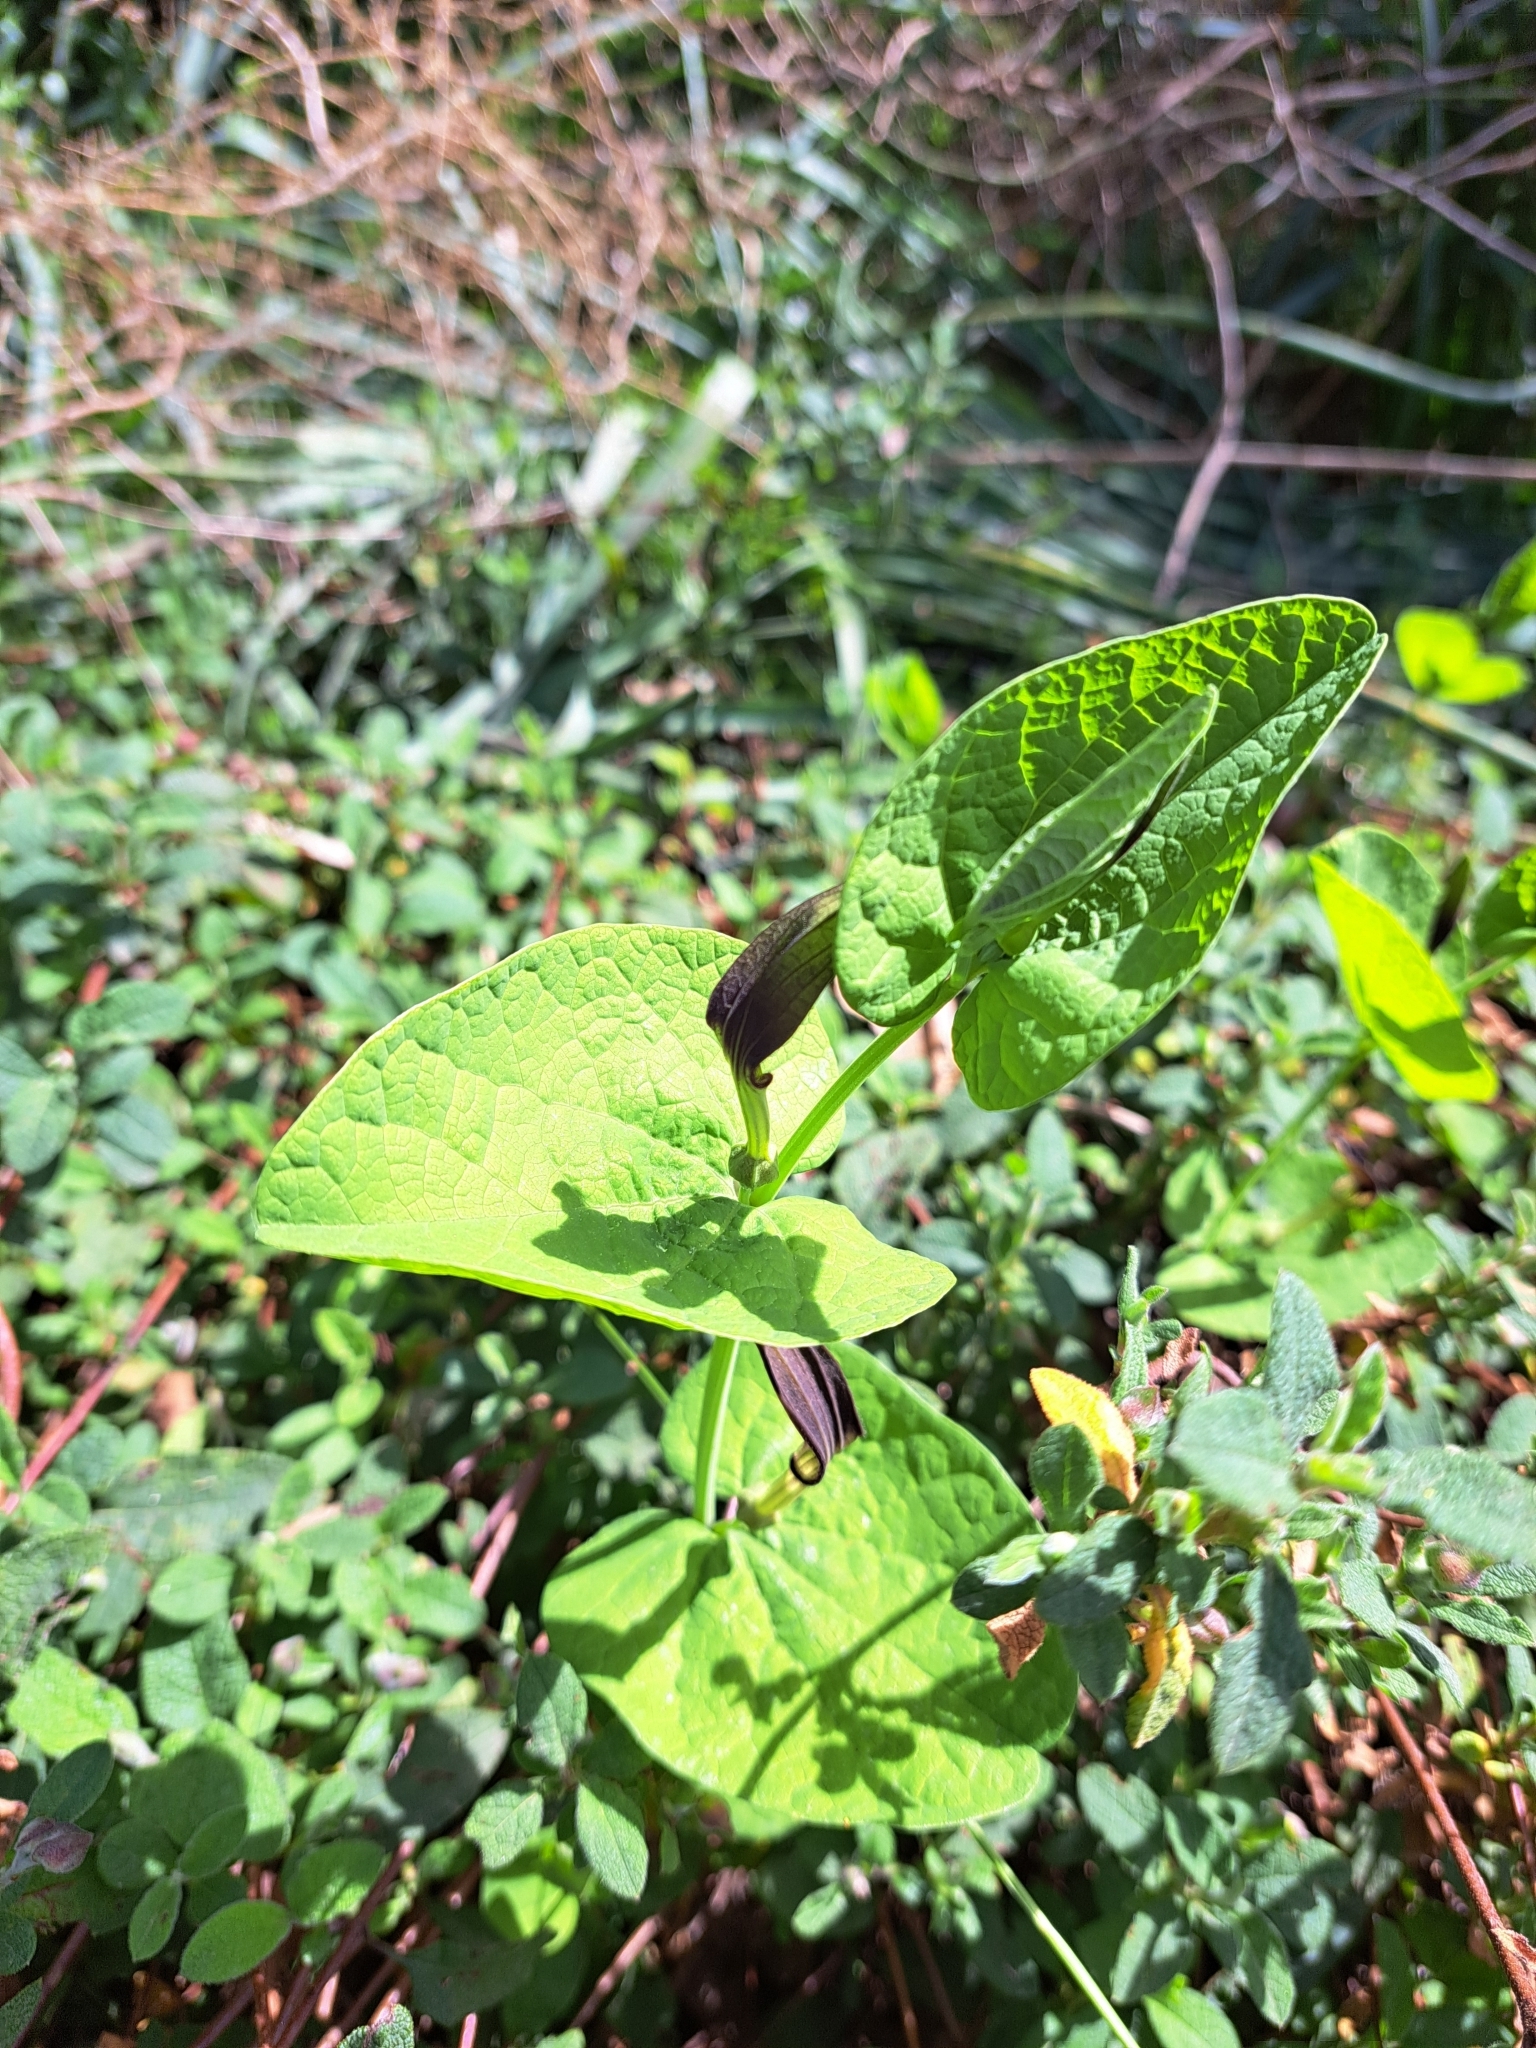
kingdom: Plantae
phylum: Tracheophyta
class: Magnoliopsida
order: Piperales
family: Aristolochiaceae
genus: Aristolochia
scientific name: Aristolochia rotunda
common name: Smearwort
